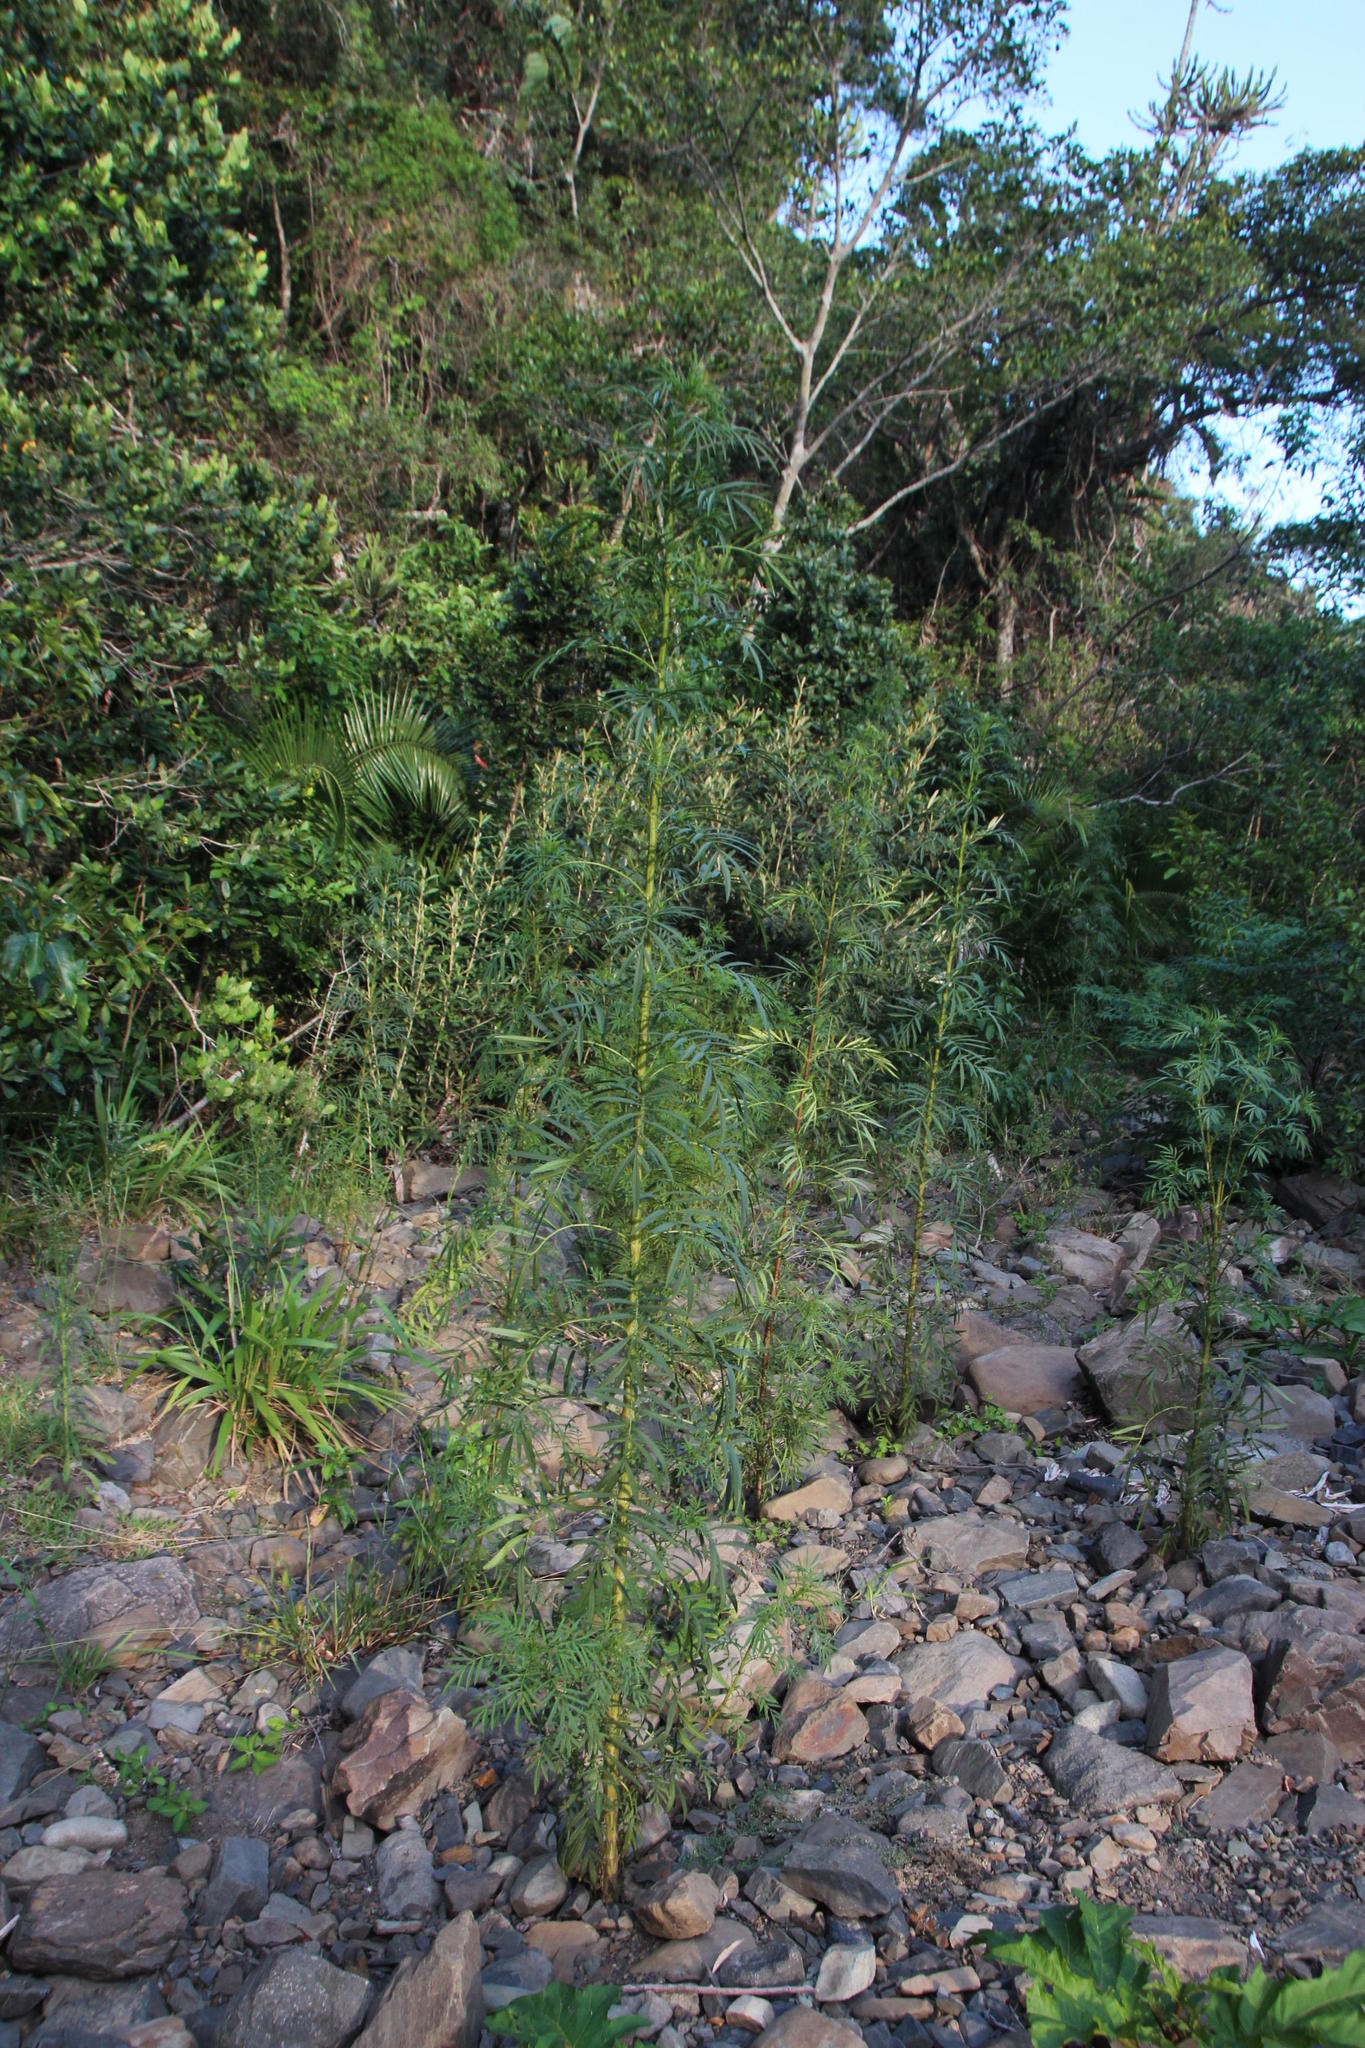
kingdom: Plantae
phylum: Tracheophyta
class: Magnoliopsida
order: Asterales
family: Asteraceae
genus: Tagetes
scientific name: Tagetes minuta
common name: Muster john henry
